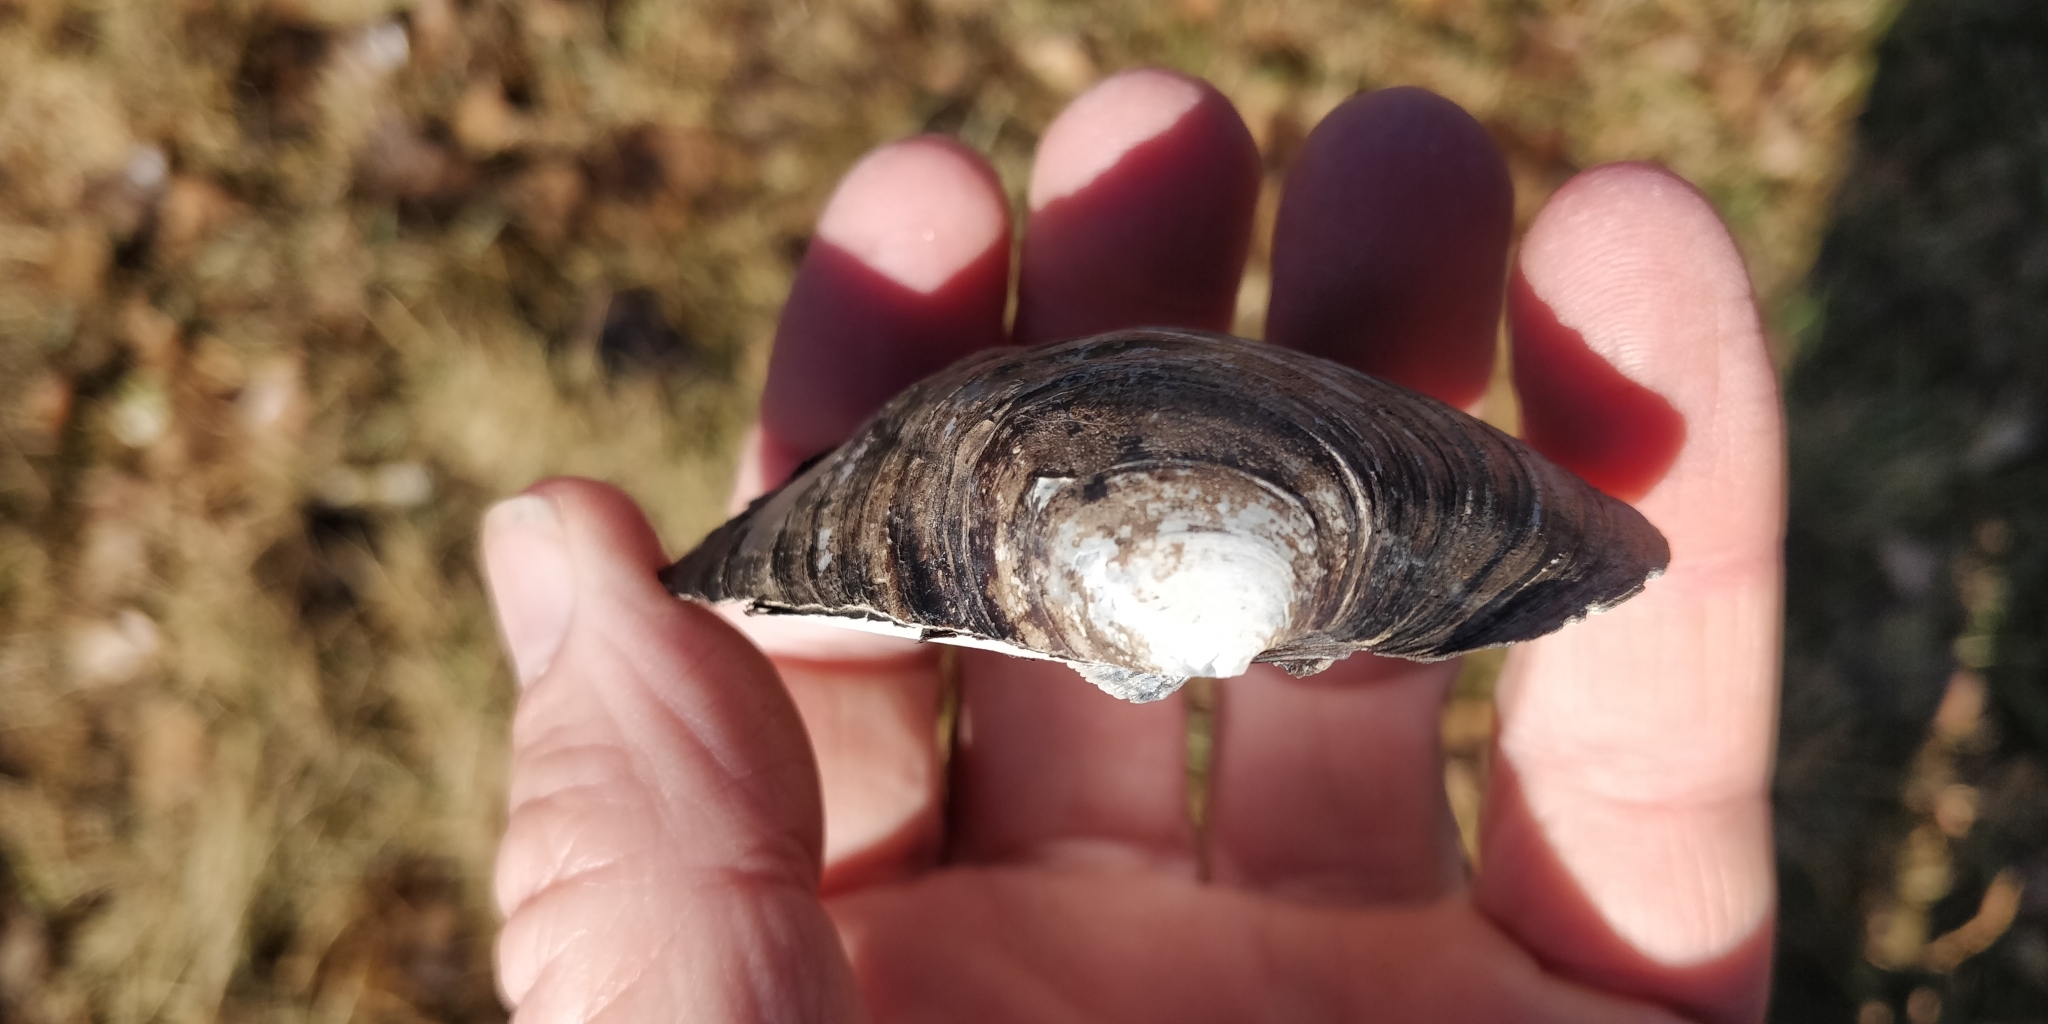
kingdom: Animalia
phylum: Mollusca
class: Bivalvia
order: Unionida
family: Unionidae
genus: Amblema
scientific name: Amblema plicata
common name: Threeridge
